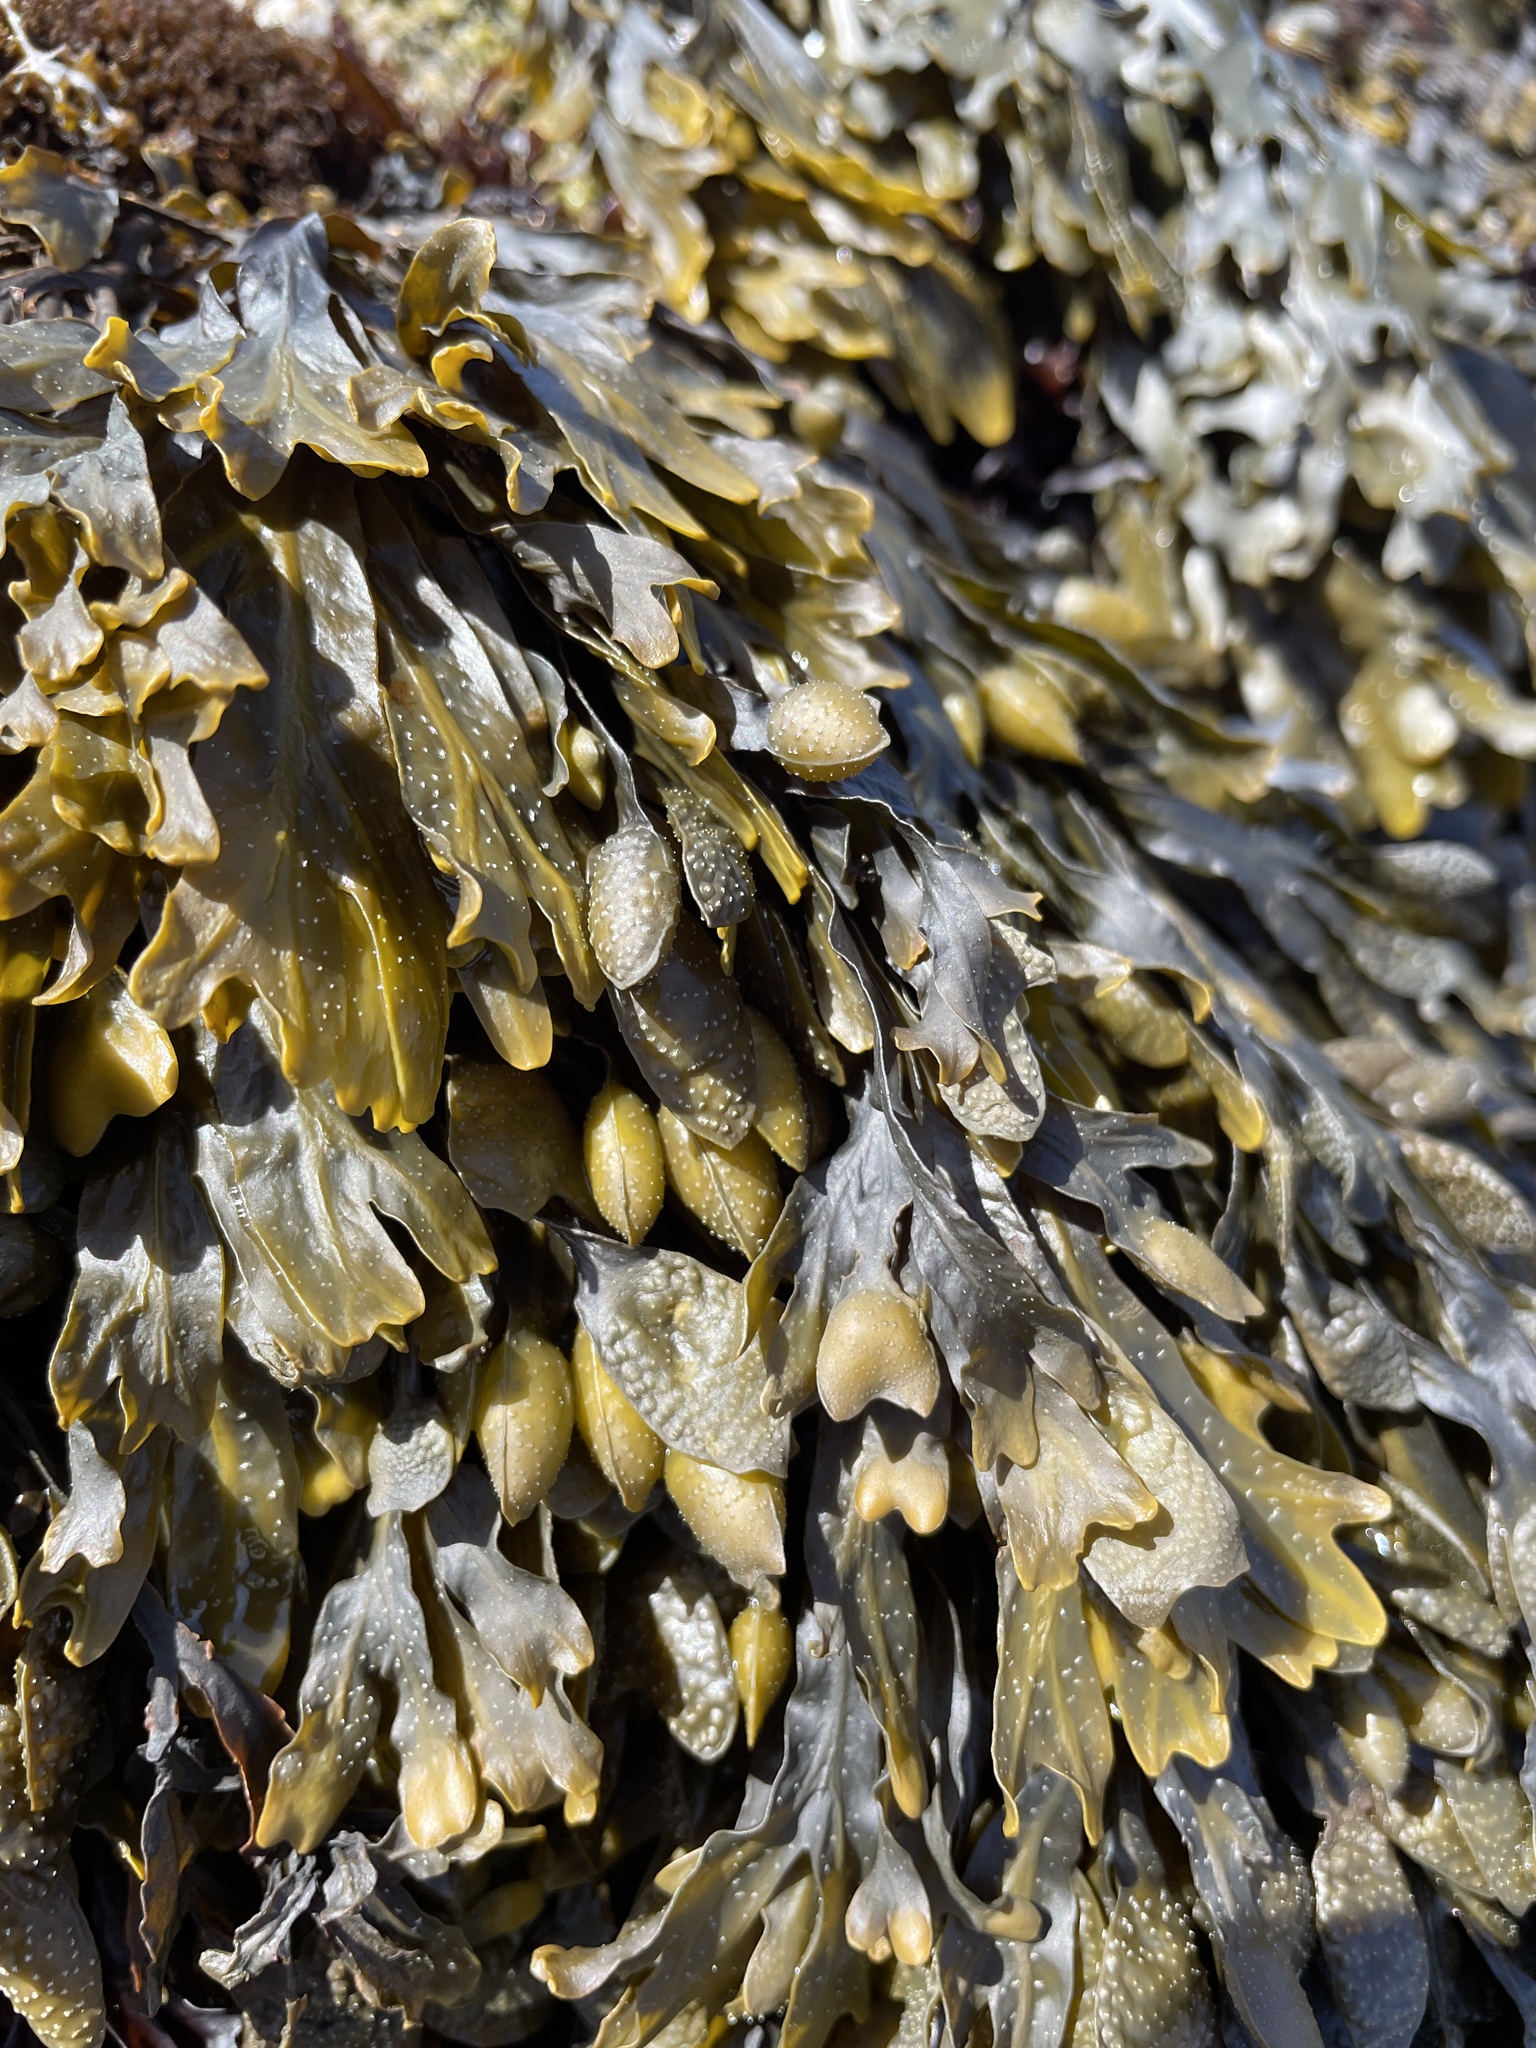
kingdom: Chromista
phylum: Ochrophyta
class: Phaeophyceae
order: Fucales
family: Fucaceae
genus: Fucus
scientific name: Fucus distichus
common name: Rockweed
